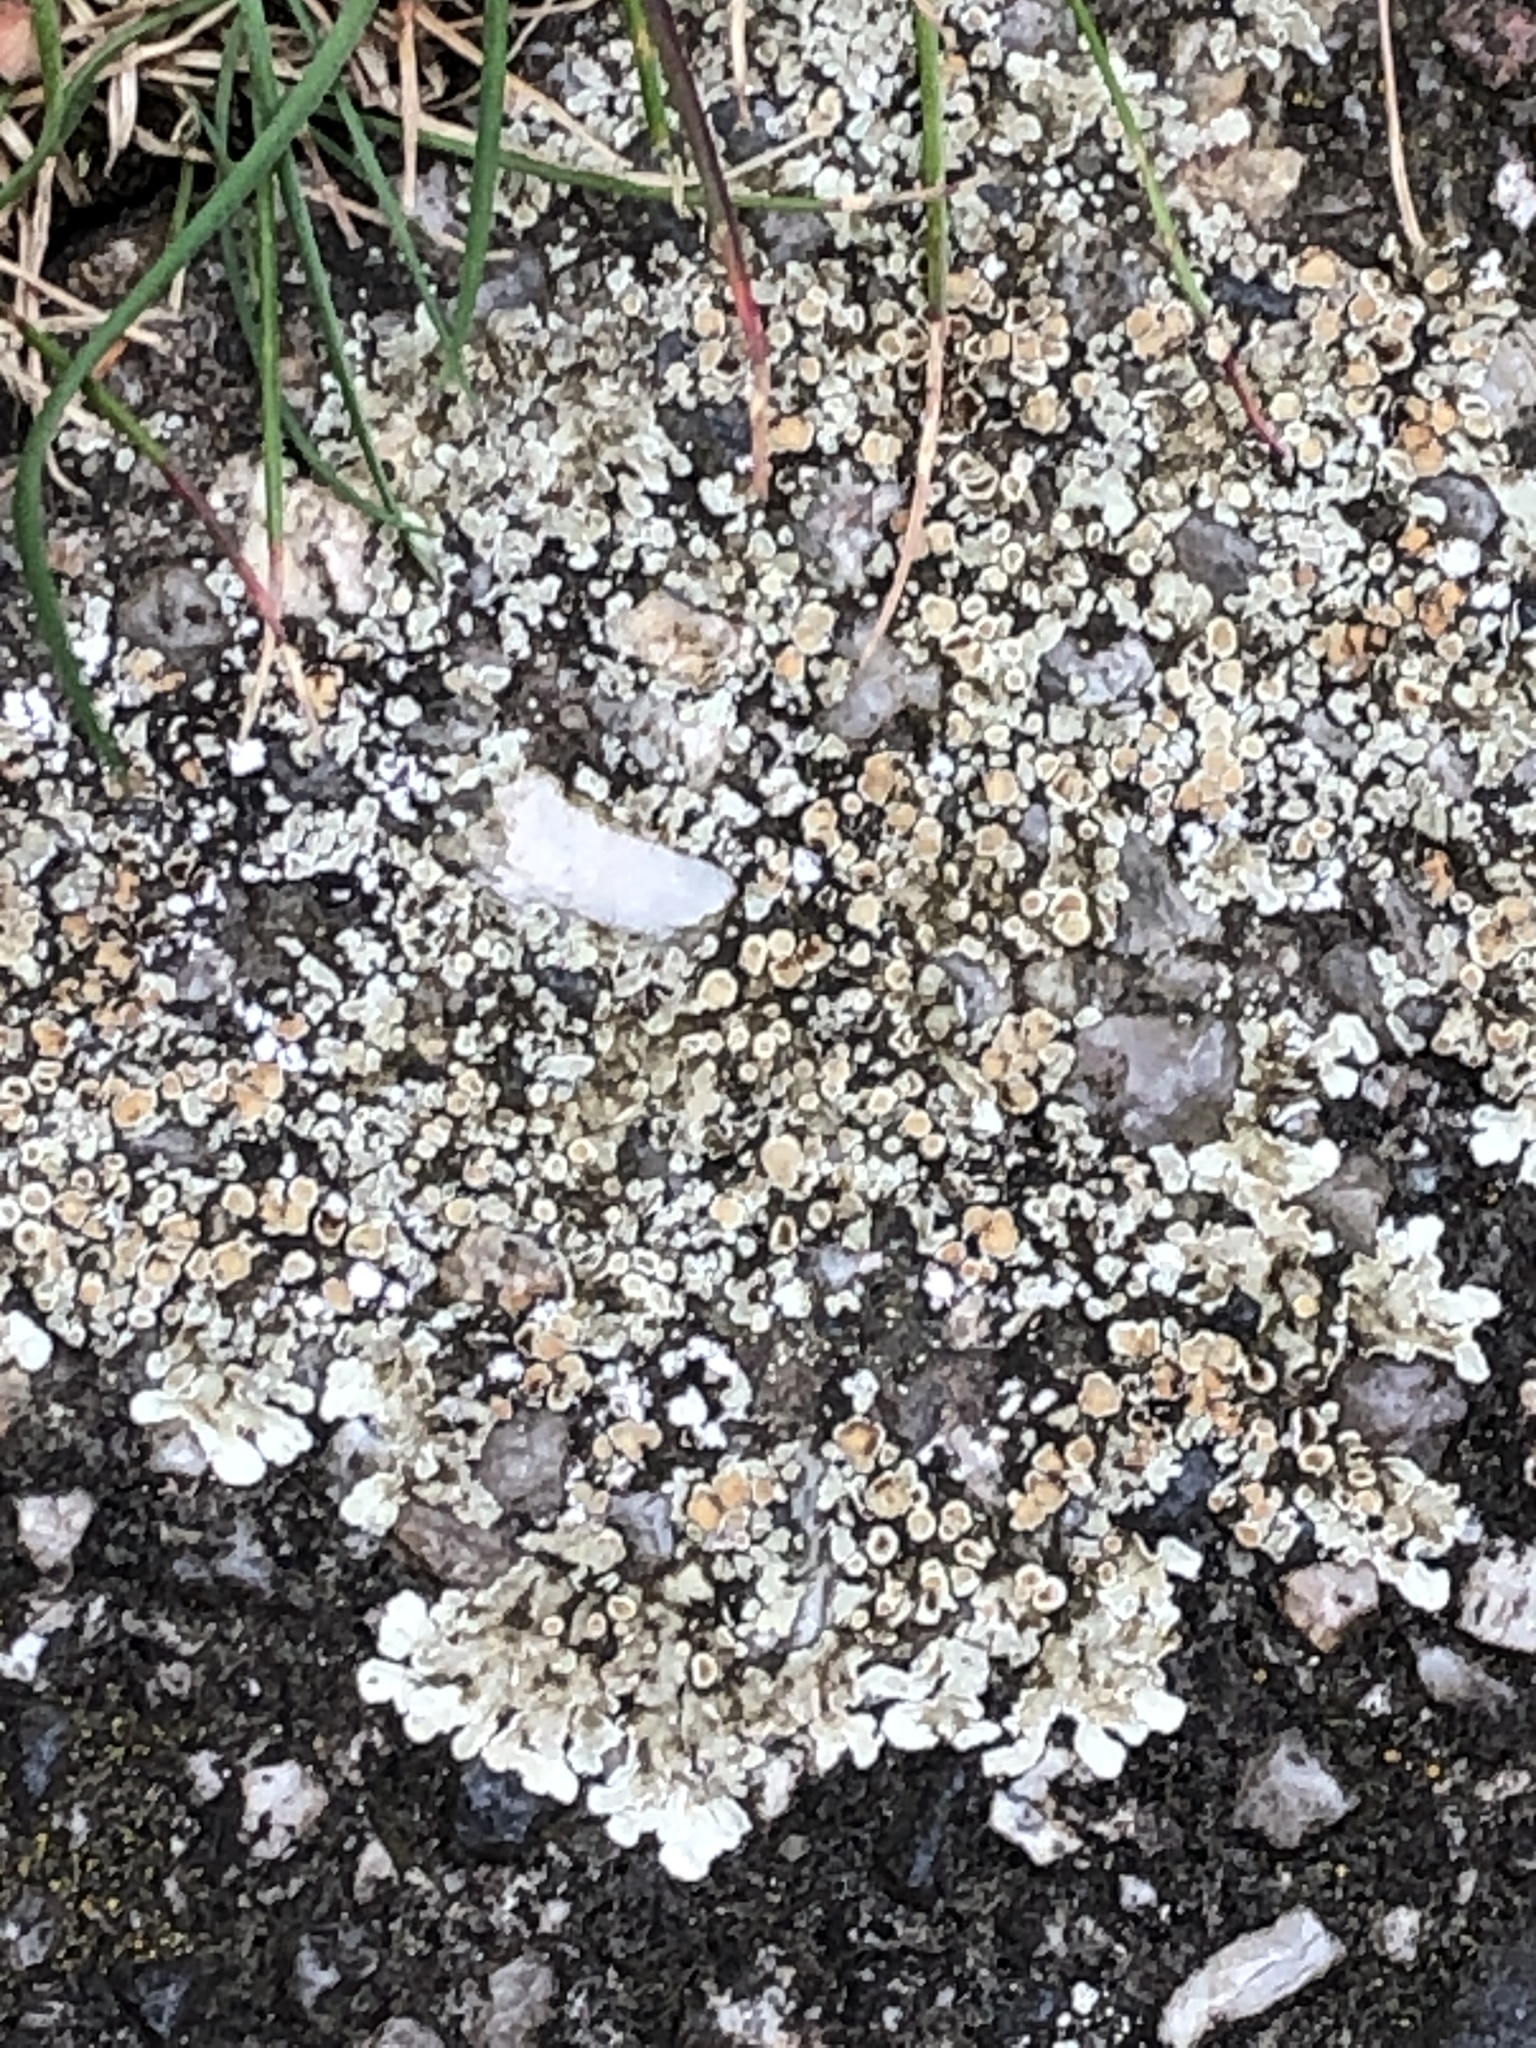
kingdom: Fungi
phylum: Ascomycota
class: Lecanoromycetes
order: Lecanorales
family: Lecanoraceae
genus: Protoparmeliopsis
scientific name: Protoparmeliopsis muralis
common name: Stonewall rim lichen
